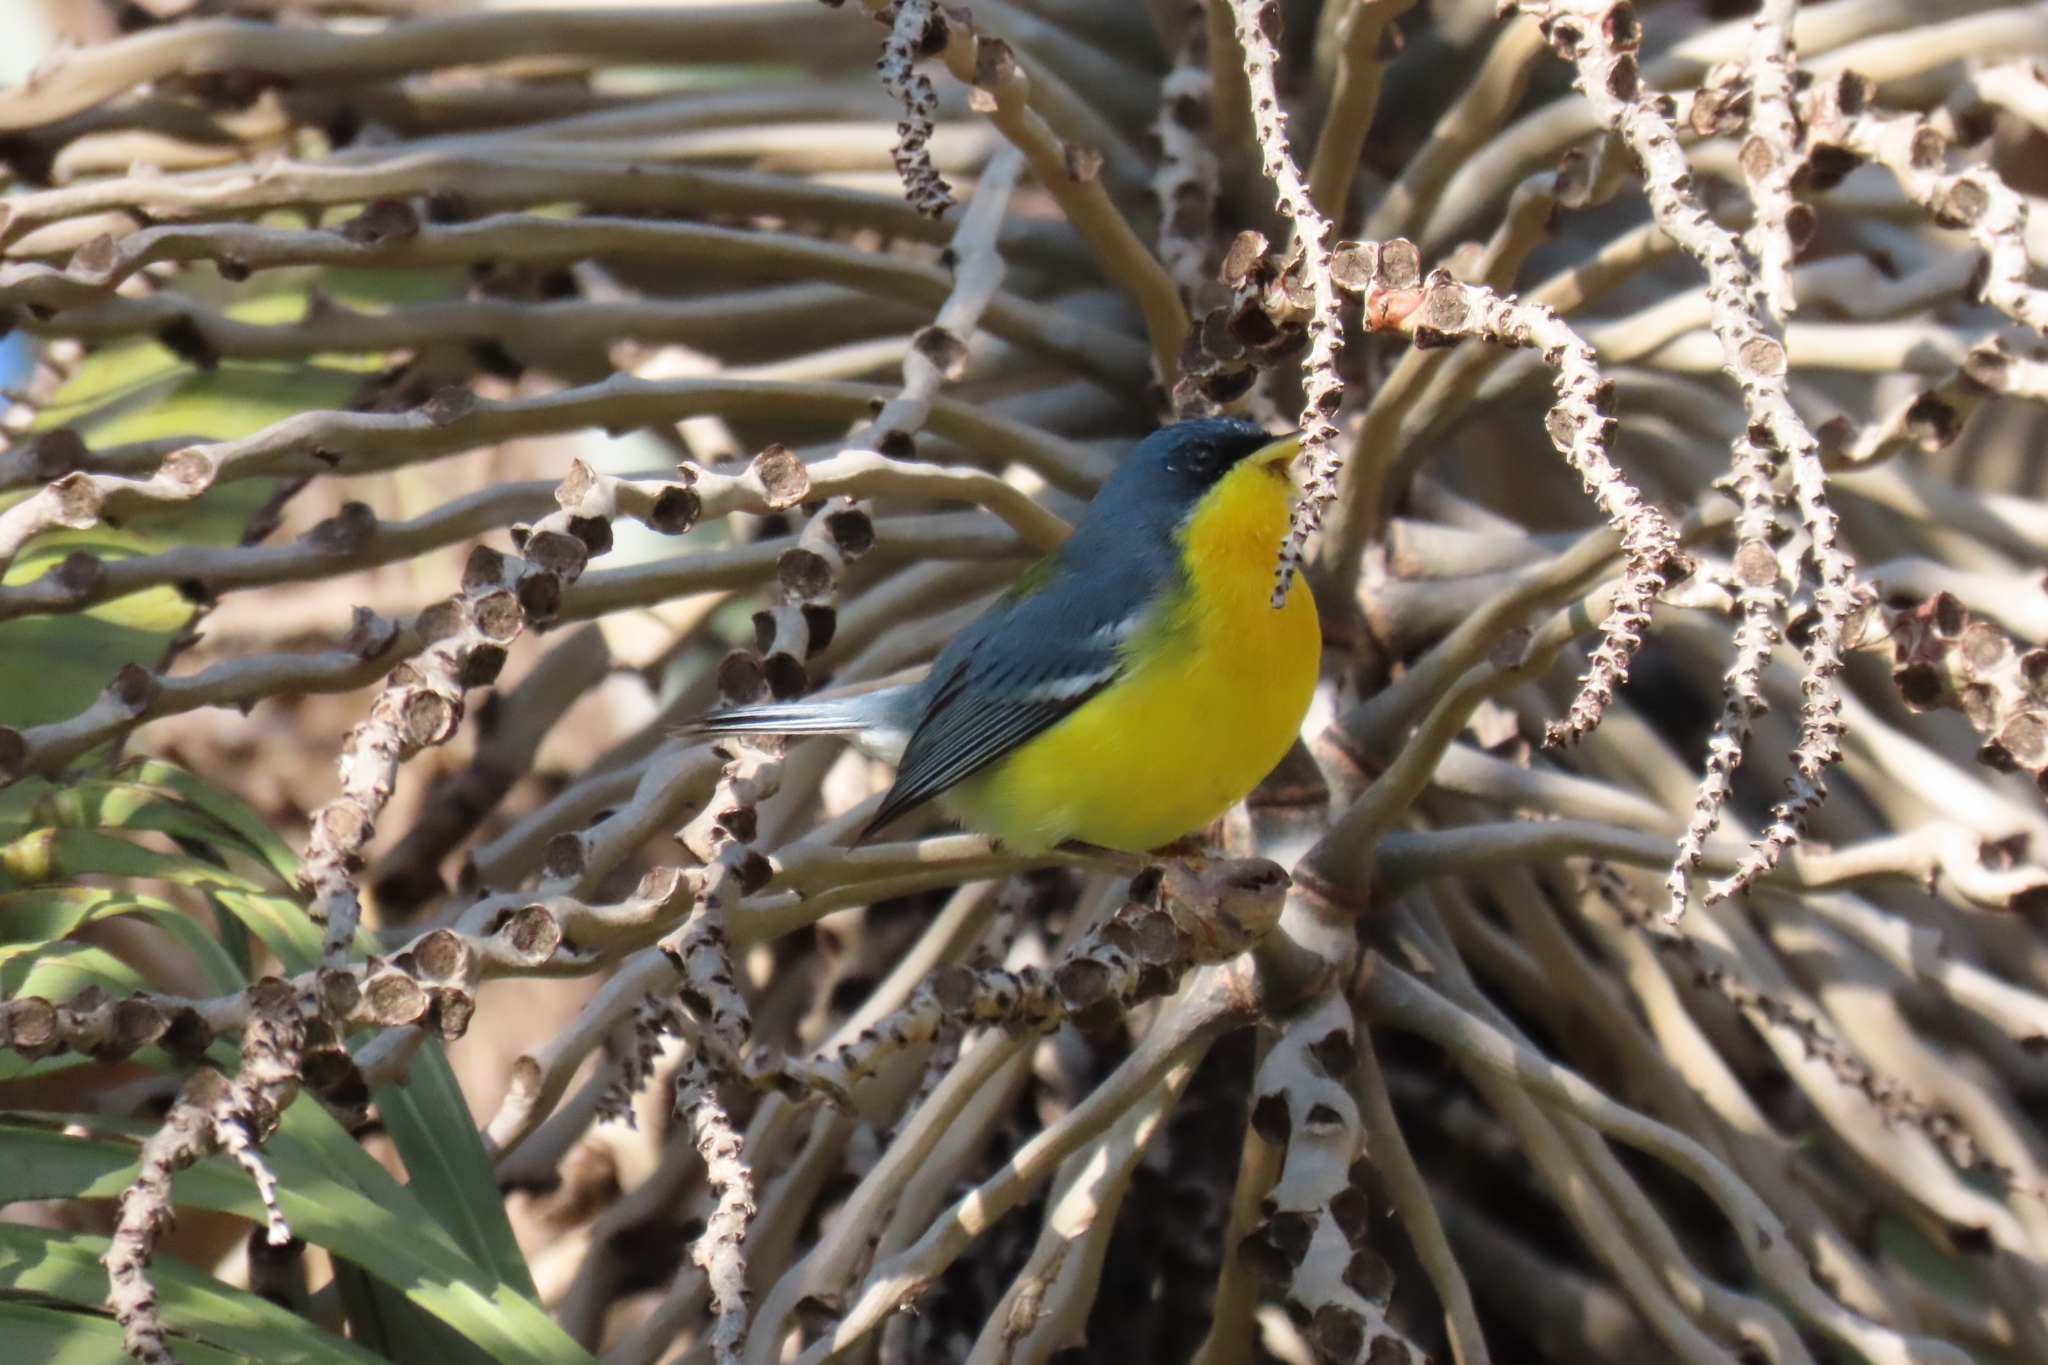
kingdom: Animalia
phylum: Chordata
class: Aves
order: Passeriformes
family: Parulidae
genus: Setophaga
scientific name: Setophaga pitiayumi
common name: Tropical parula
